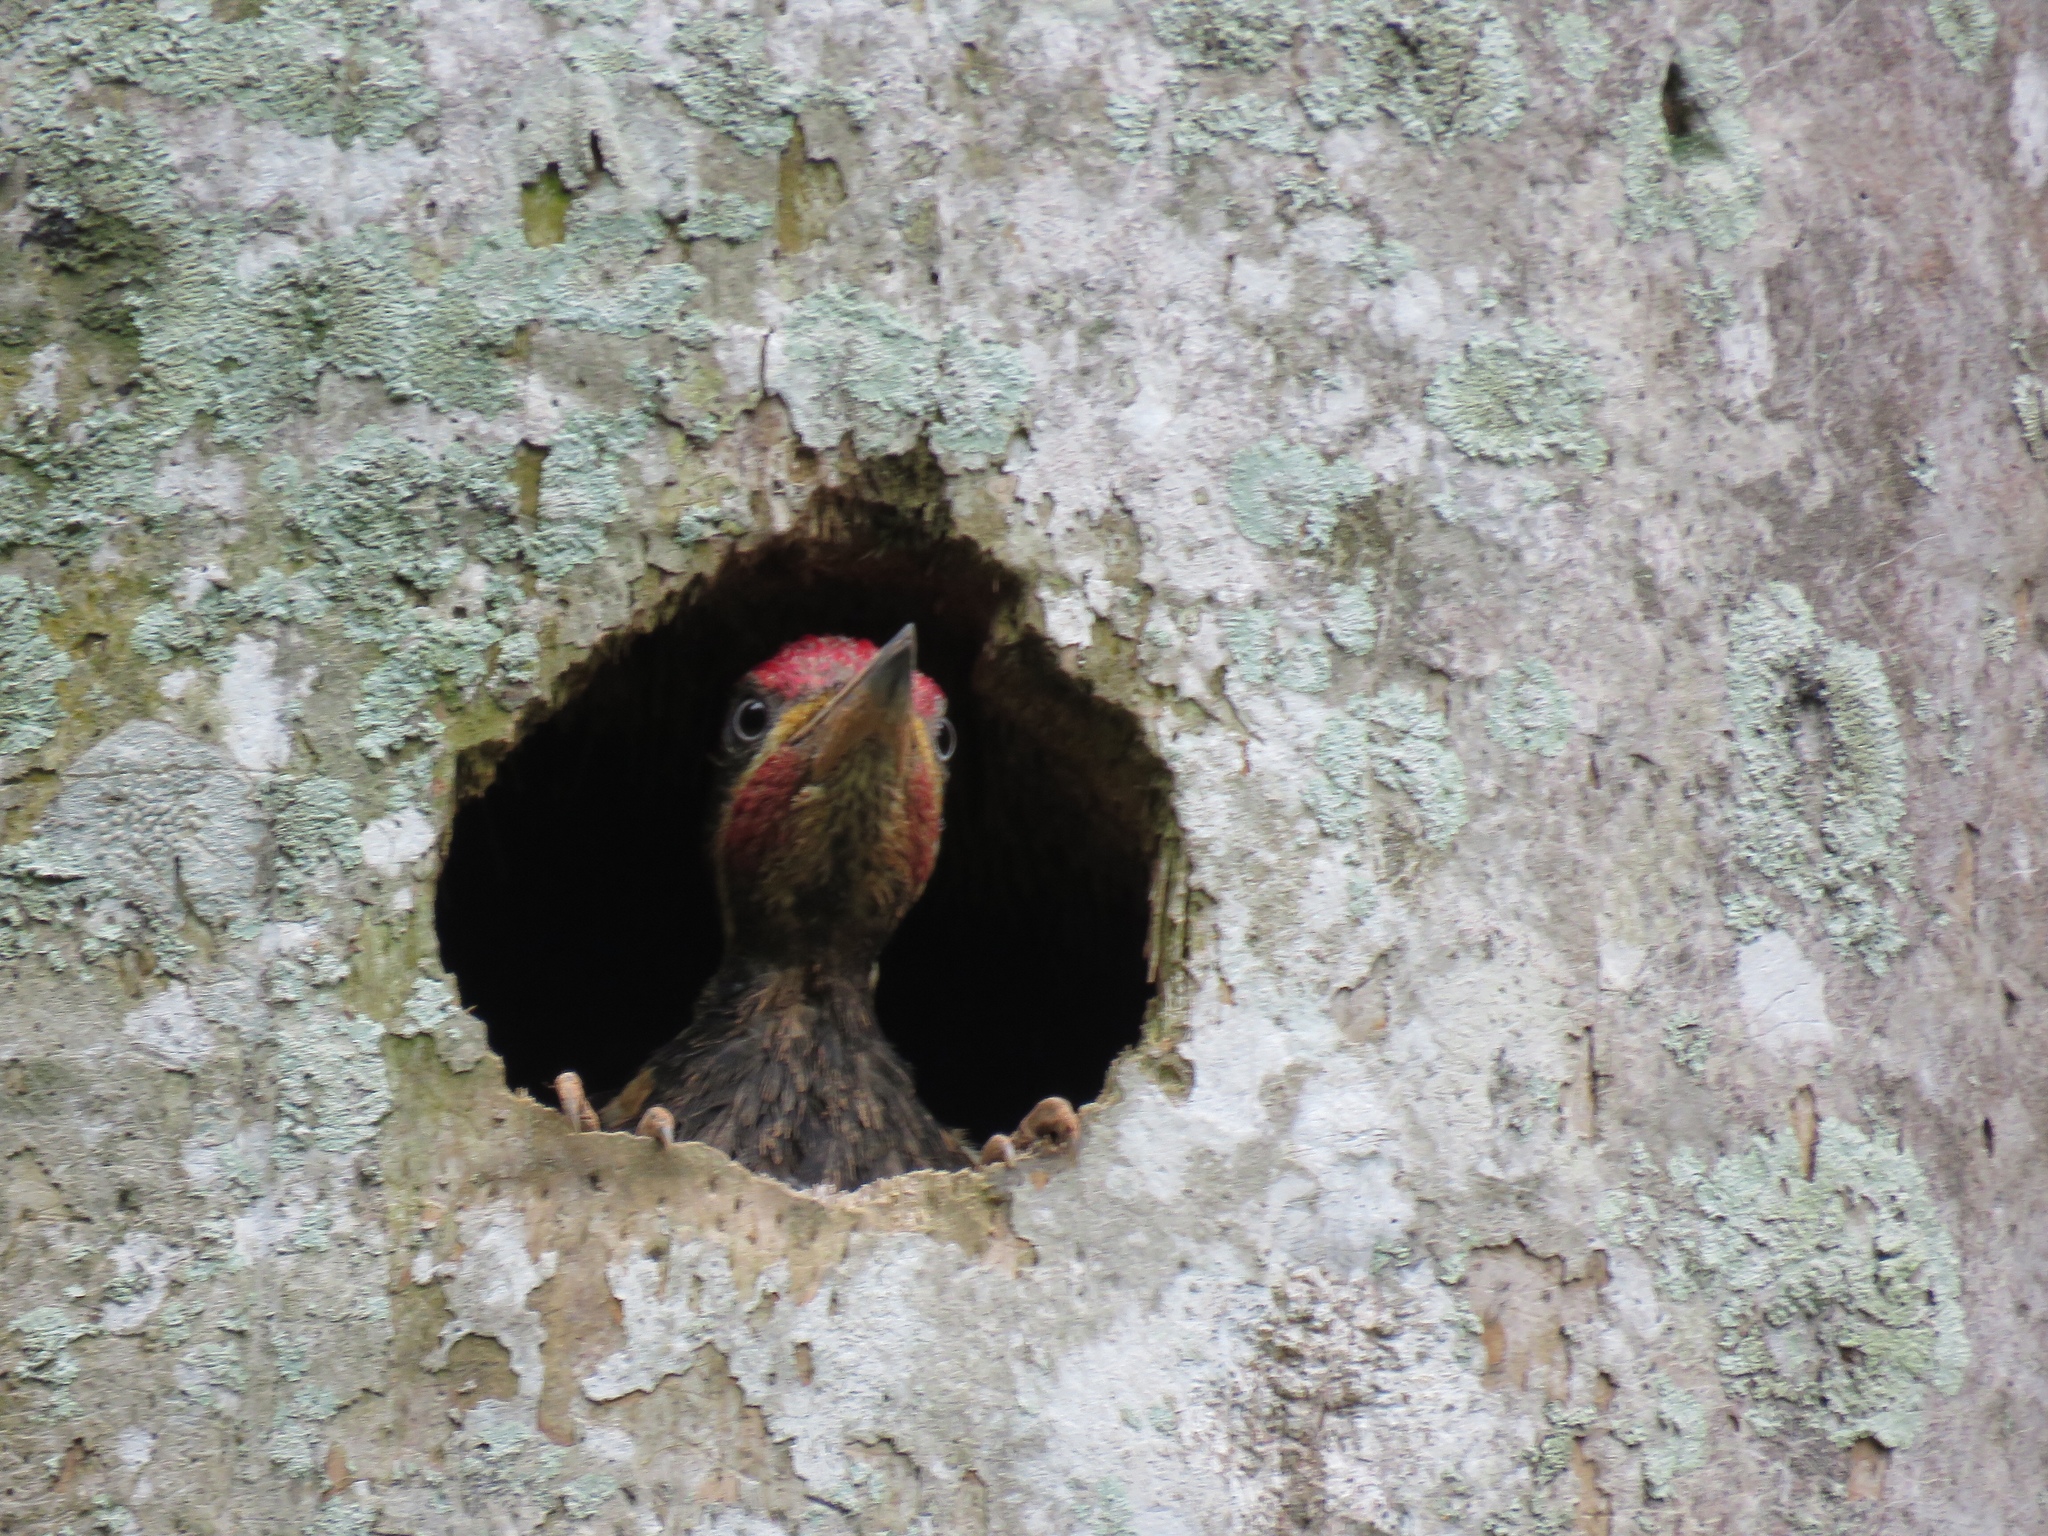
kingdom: Animalia
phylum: Chordata
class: Aves
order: Piciformes
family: Picidae
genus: Dryocopus
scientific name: Dryocopus lineatus
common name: Lineated woodpecker
